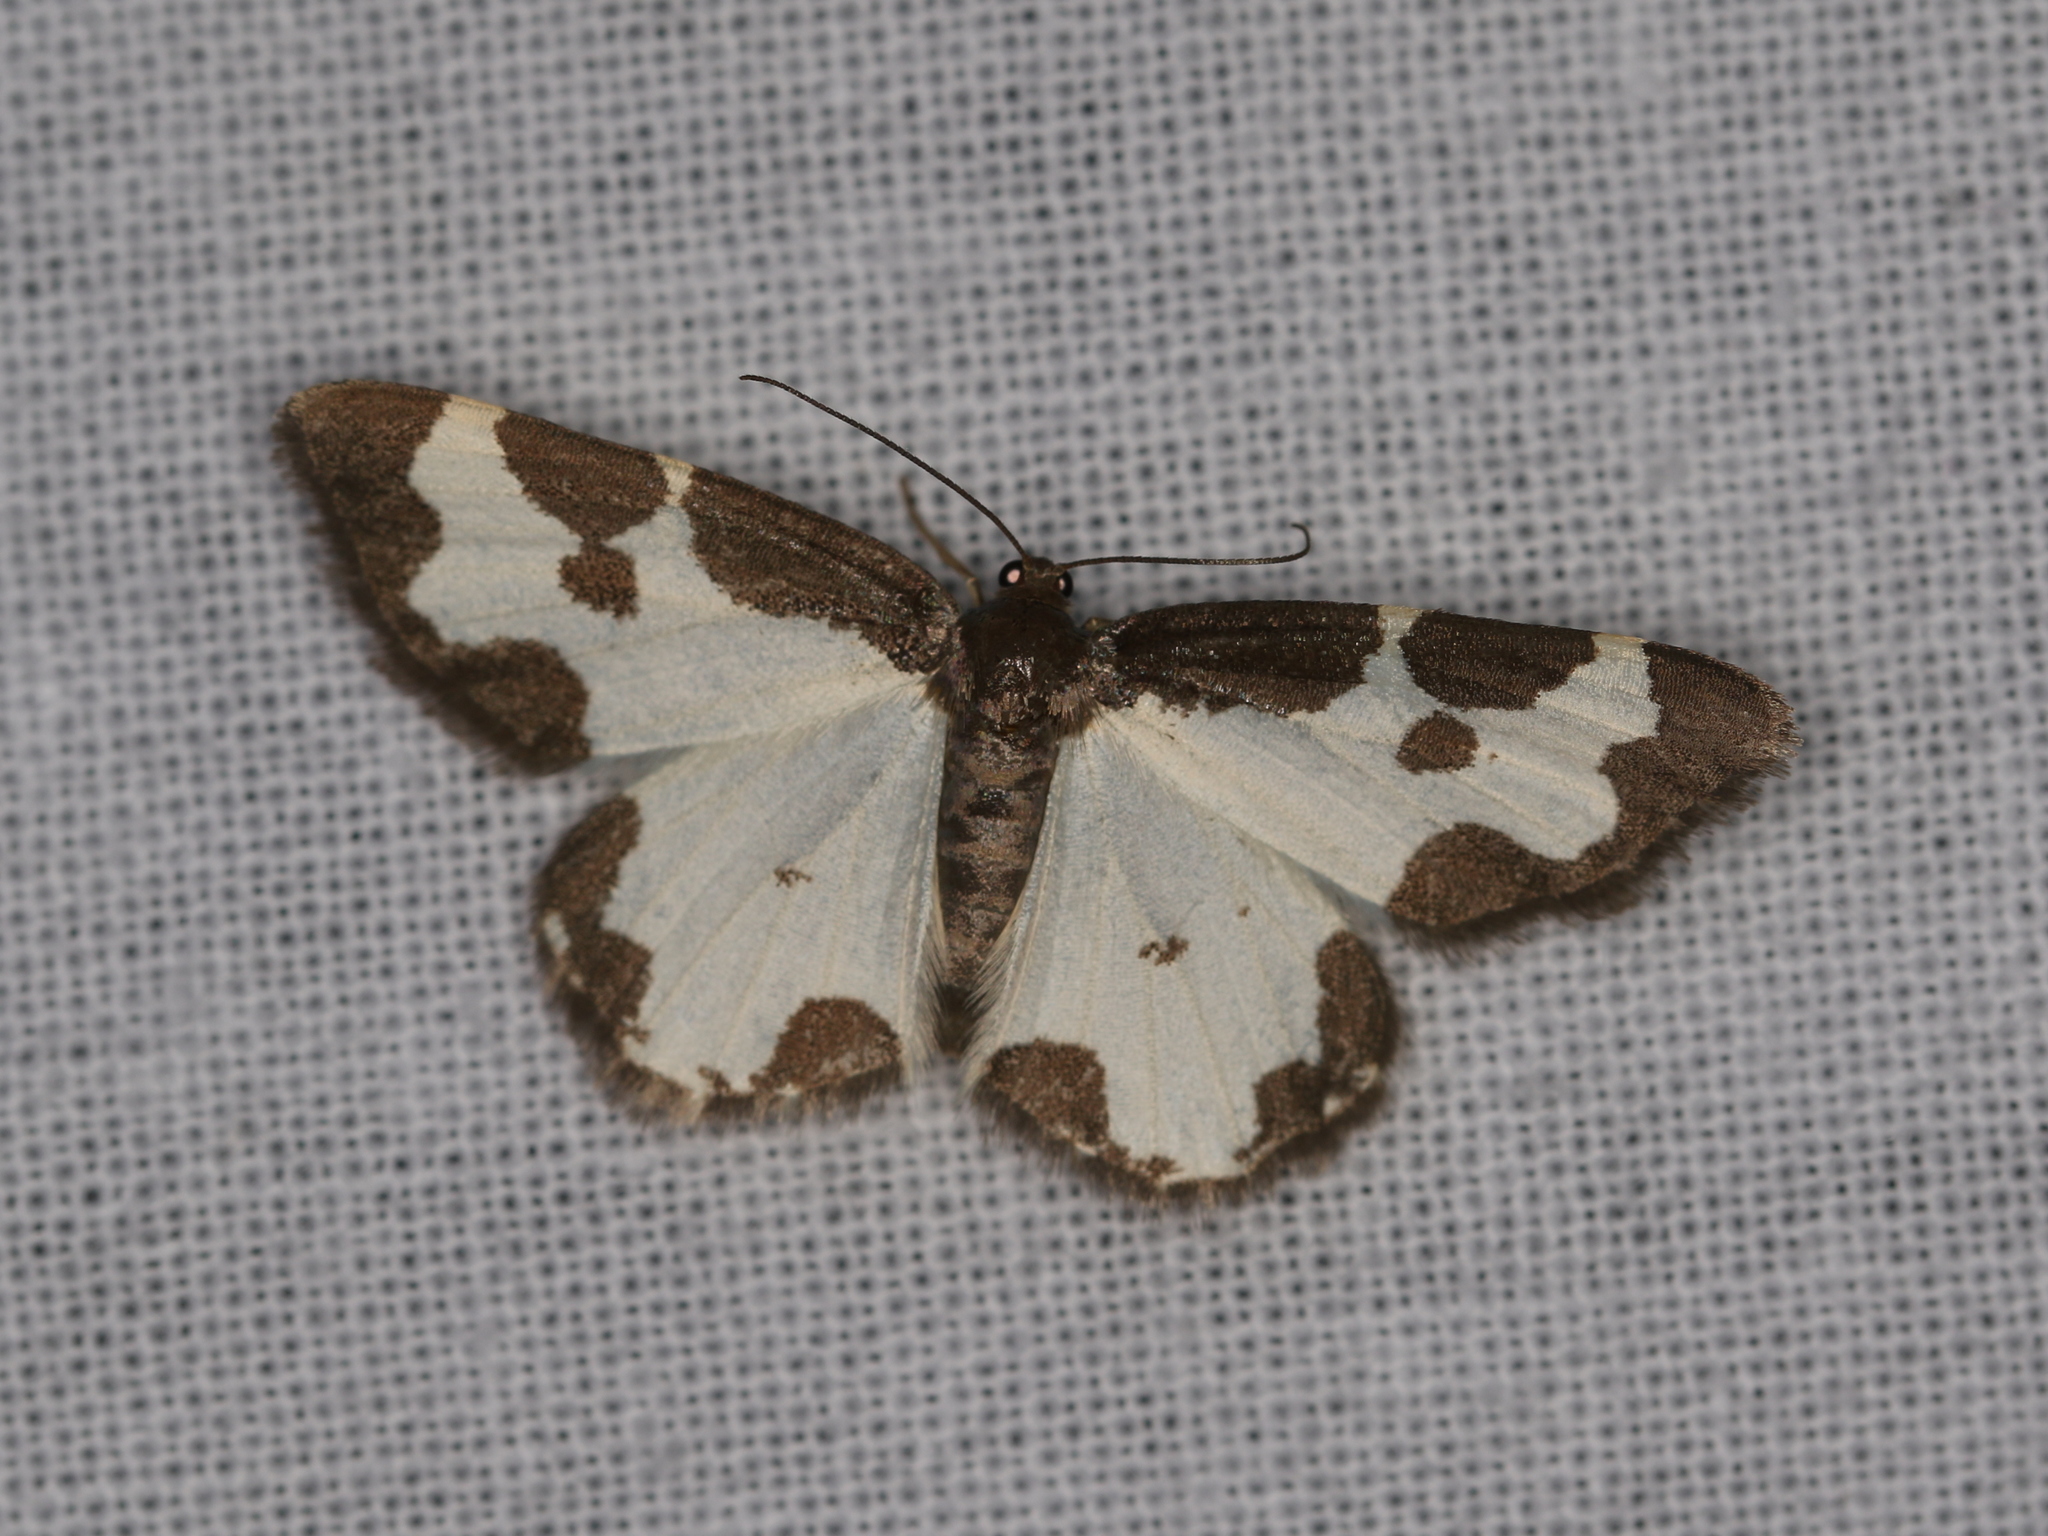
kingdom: Animalia
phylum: Arthropoda
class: Insecta
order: Lepidoptera
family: Geometridae
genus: Lomaspilis
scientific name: Lomaspilis marginata
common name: Clouded border
